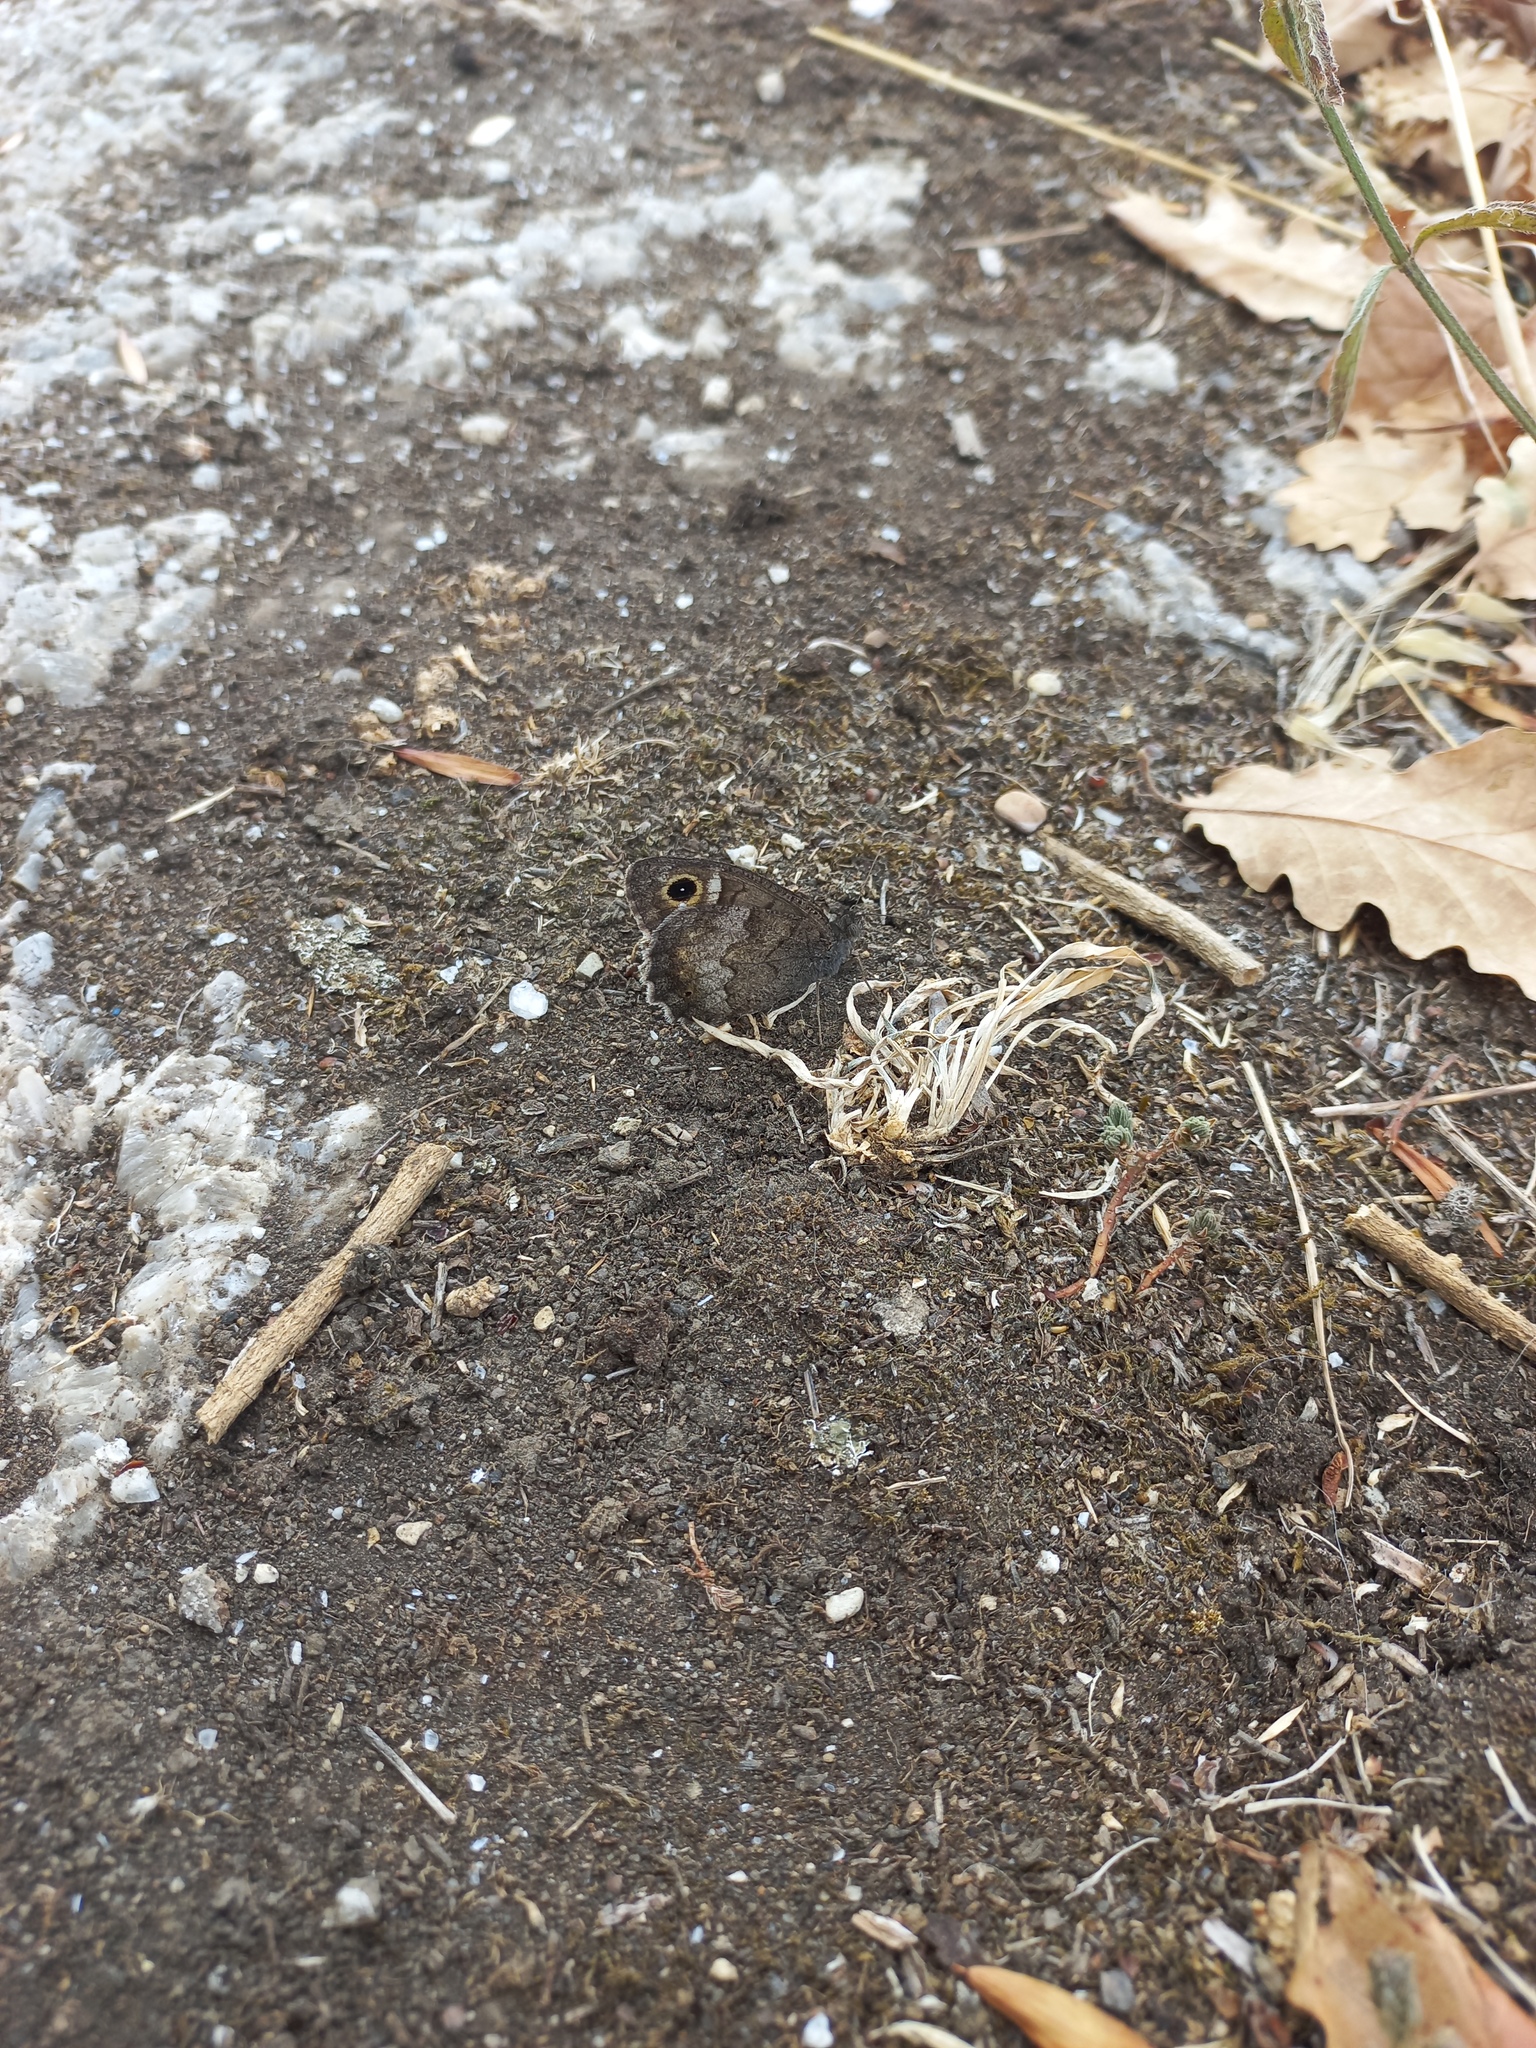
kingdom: Animalia
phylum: Arthropoda
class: Insecta
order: Lepidoptera
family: Nymphalidae
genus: Hipparchia
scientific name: Hipparchia statilinus
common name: Tree grayling
